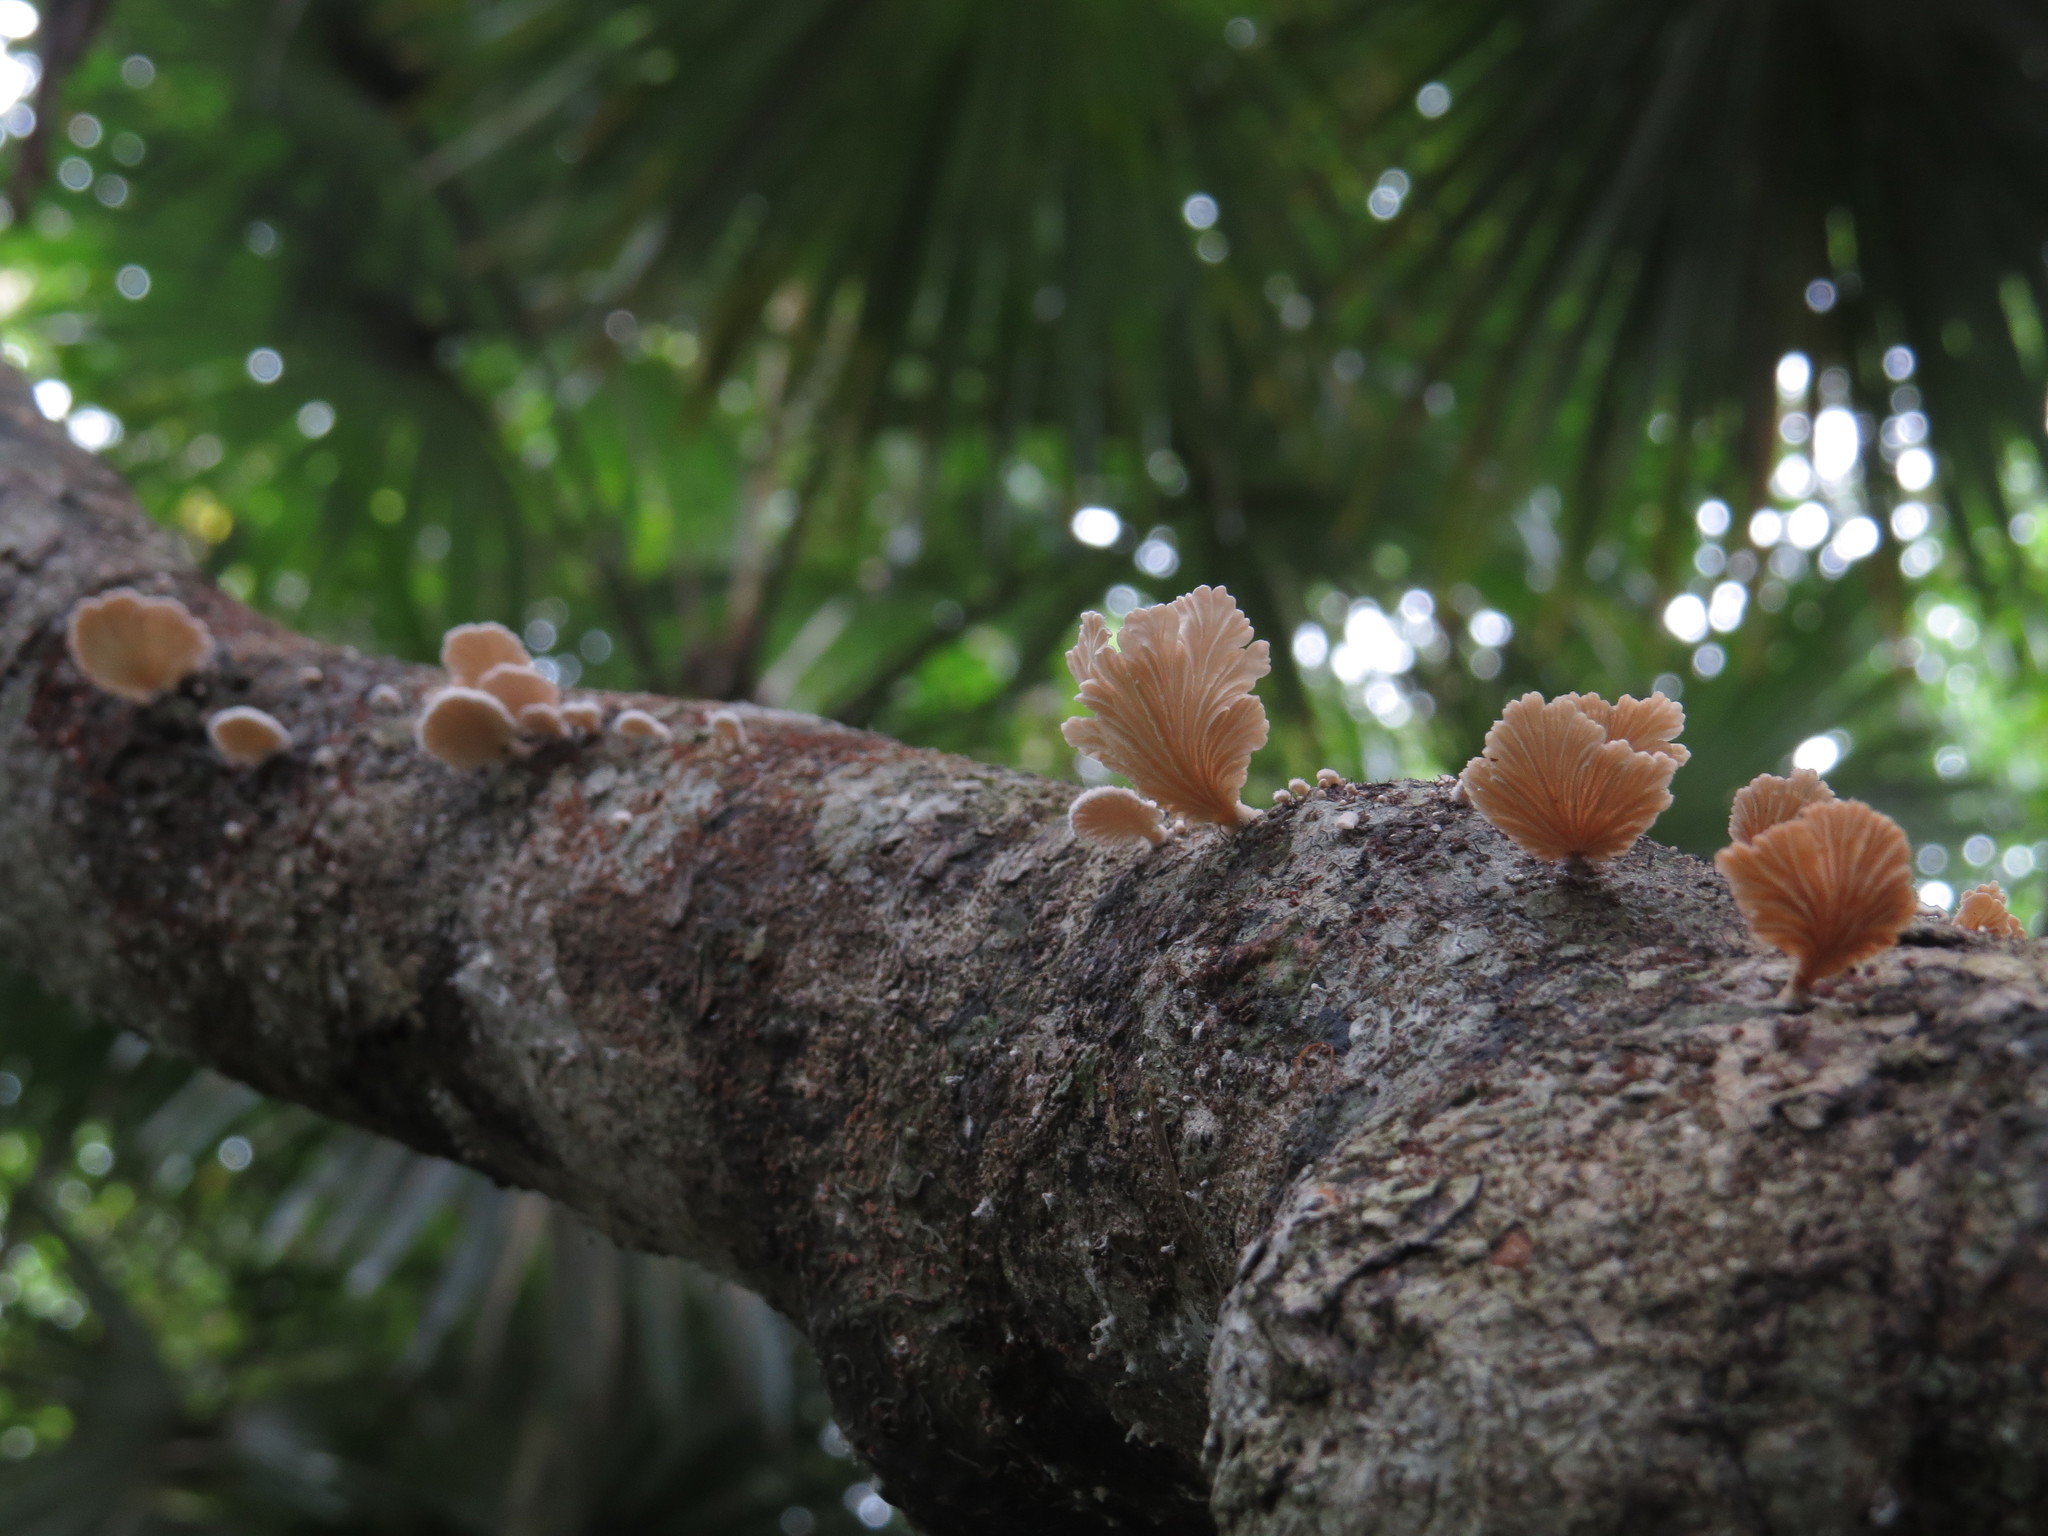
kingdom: Fungi
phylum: Basidiomycota
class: Agaricomycetes
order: Agaricales
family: Schizophyllaceae
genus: Schizophyllum
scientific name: Schizophyllum commune
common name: Common porecrust
